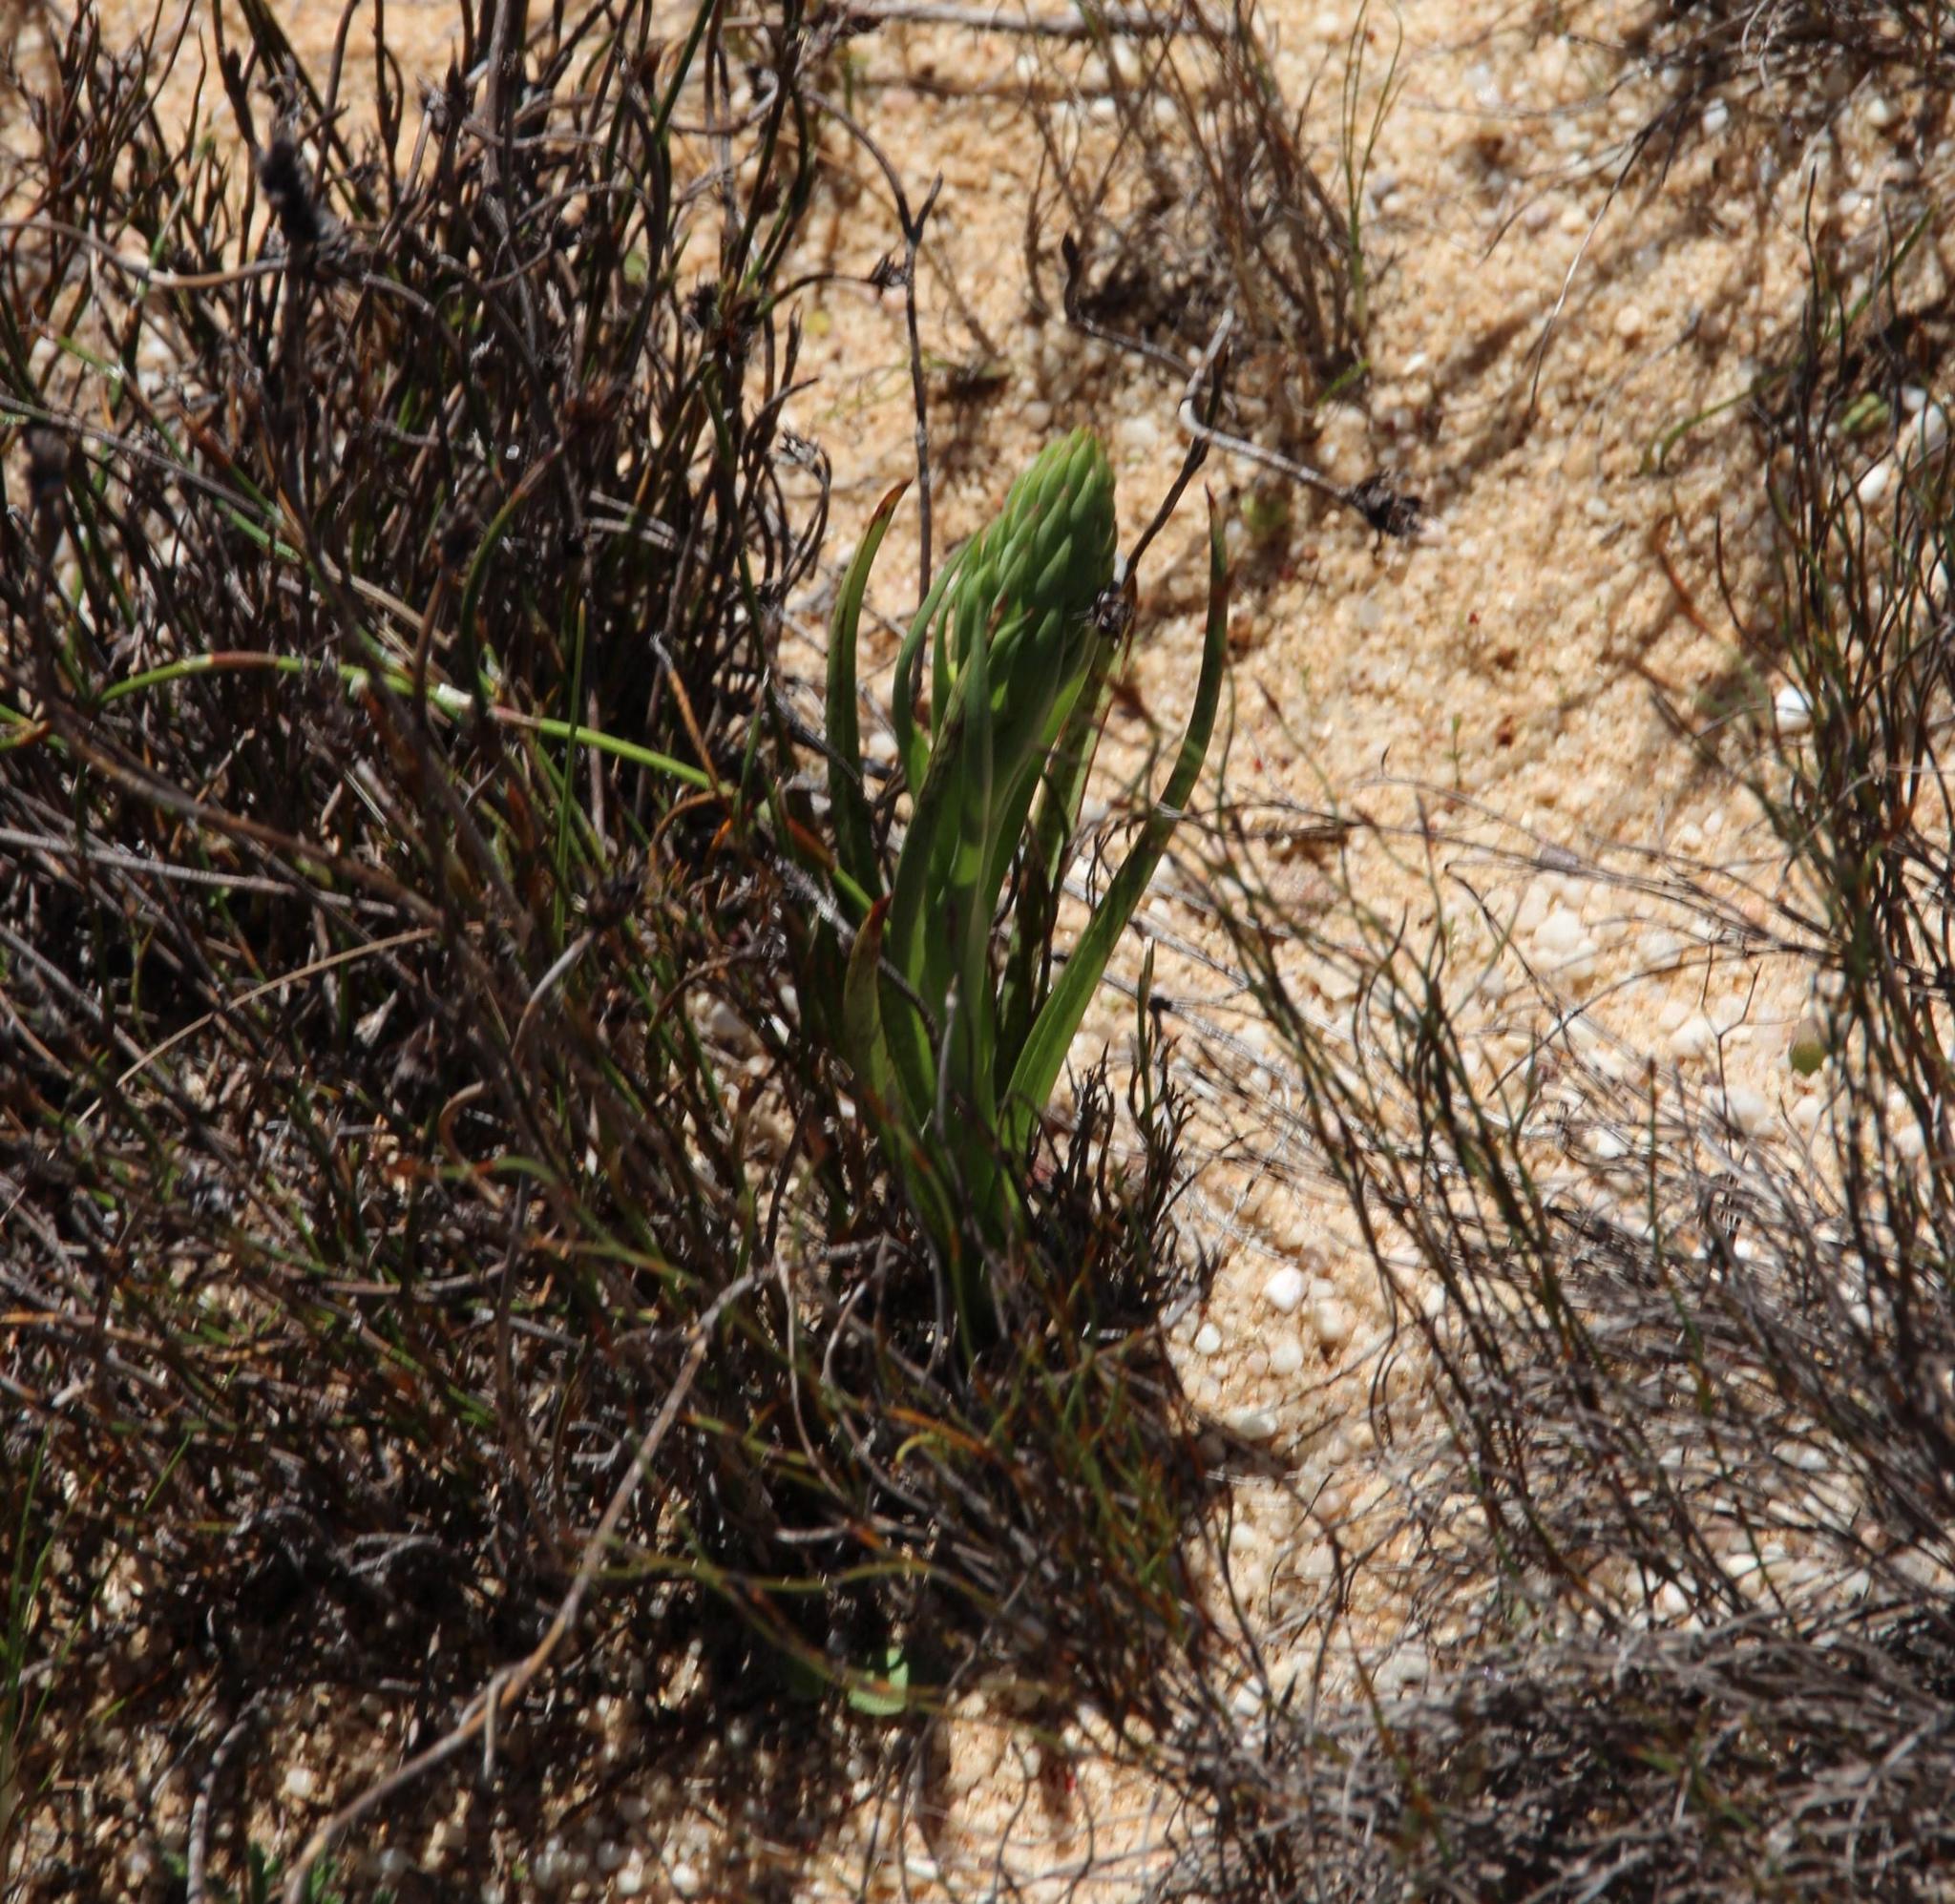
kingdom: Plantae
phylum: Tracheophyta
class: Liliopsida
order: Asparagales
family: Orchidaceae
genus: Disa
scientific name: Disa bracteata
